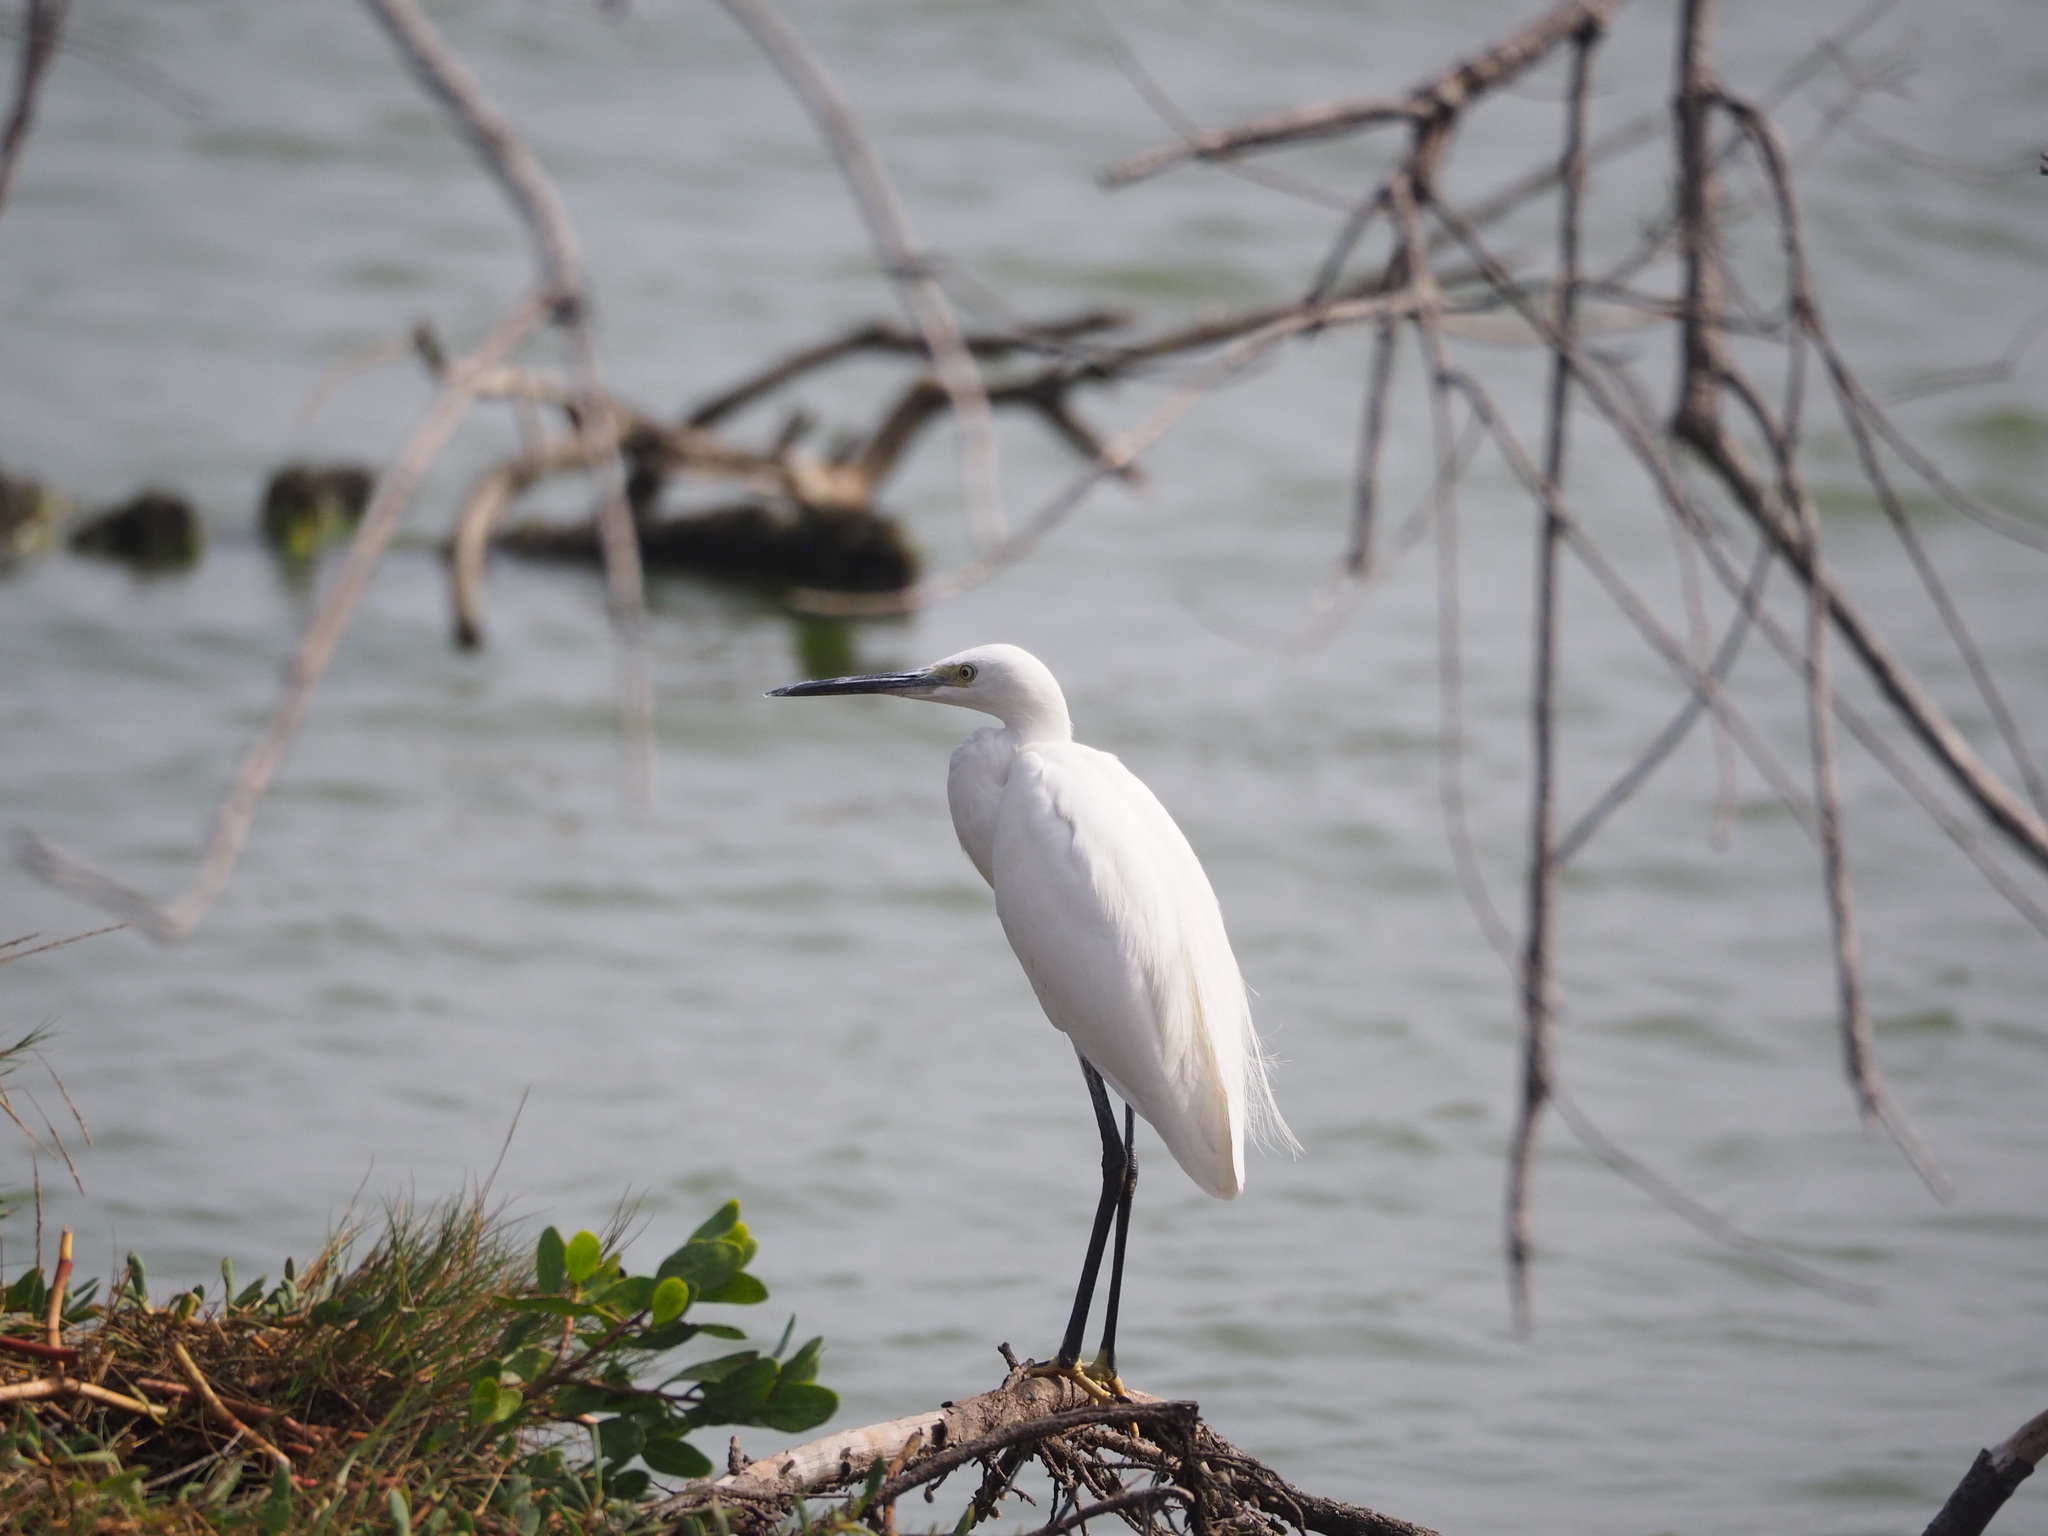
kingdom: Animalia
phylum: Chordata
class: Aves
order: Pelecaniformes
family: Ardeidae
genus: Egretta
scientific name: Egretta garzetta
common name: Little egret
